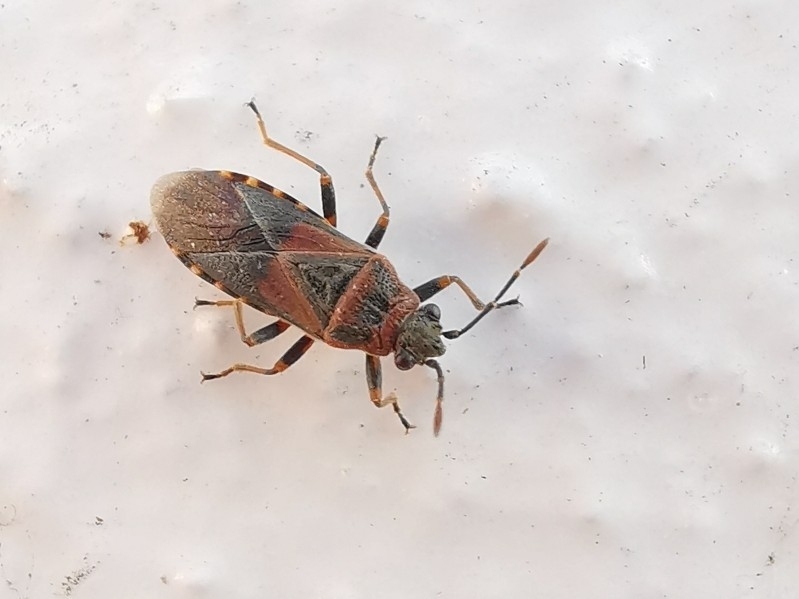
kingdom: Animalia
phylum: Arthropoda
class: Insecta
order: Hemiptera
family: Lygaeidae
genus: Arocatus
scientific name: Arocatus melanocephalus
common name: Lygaeid bug
